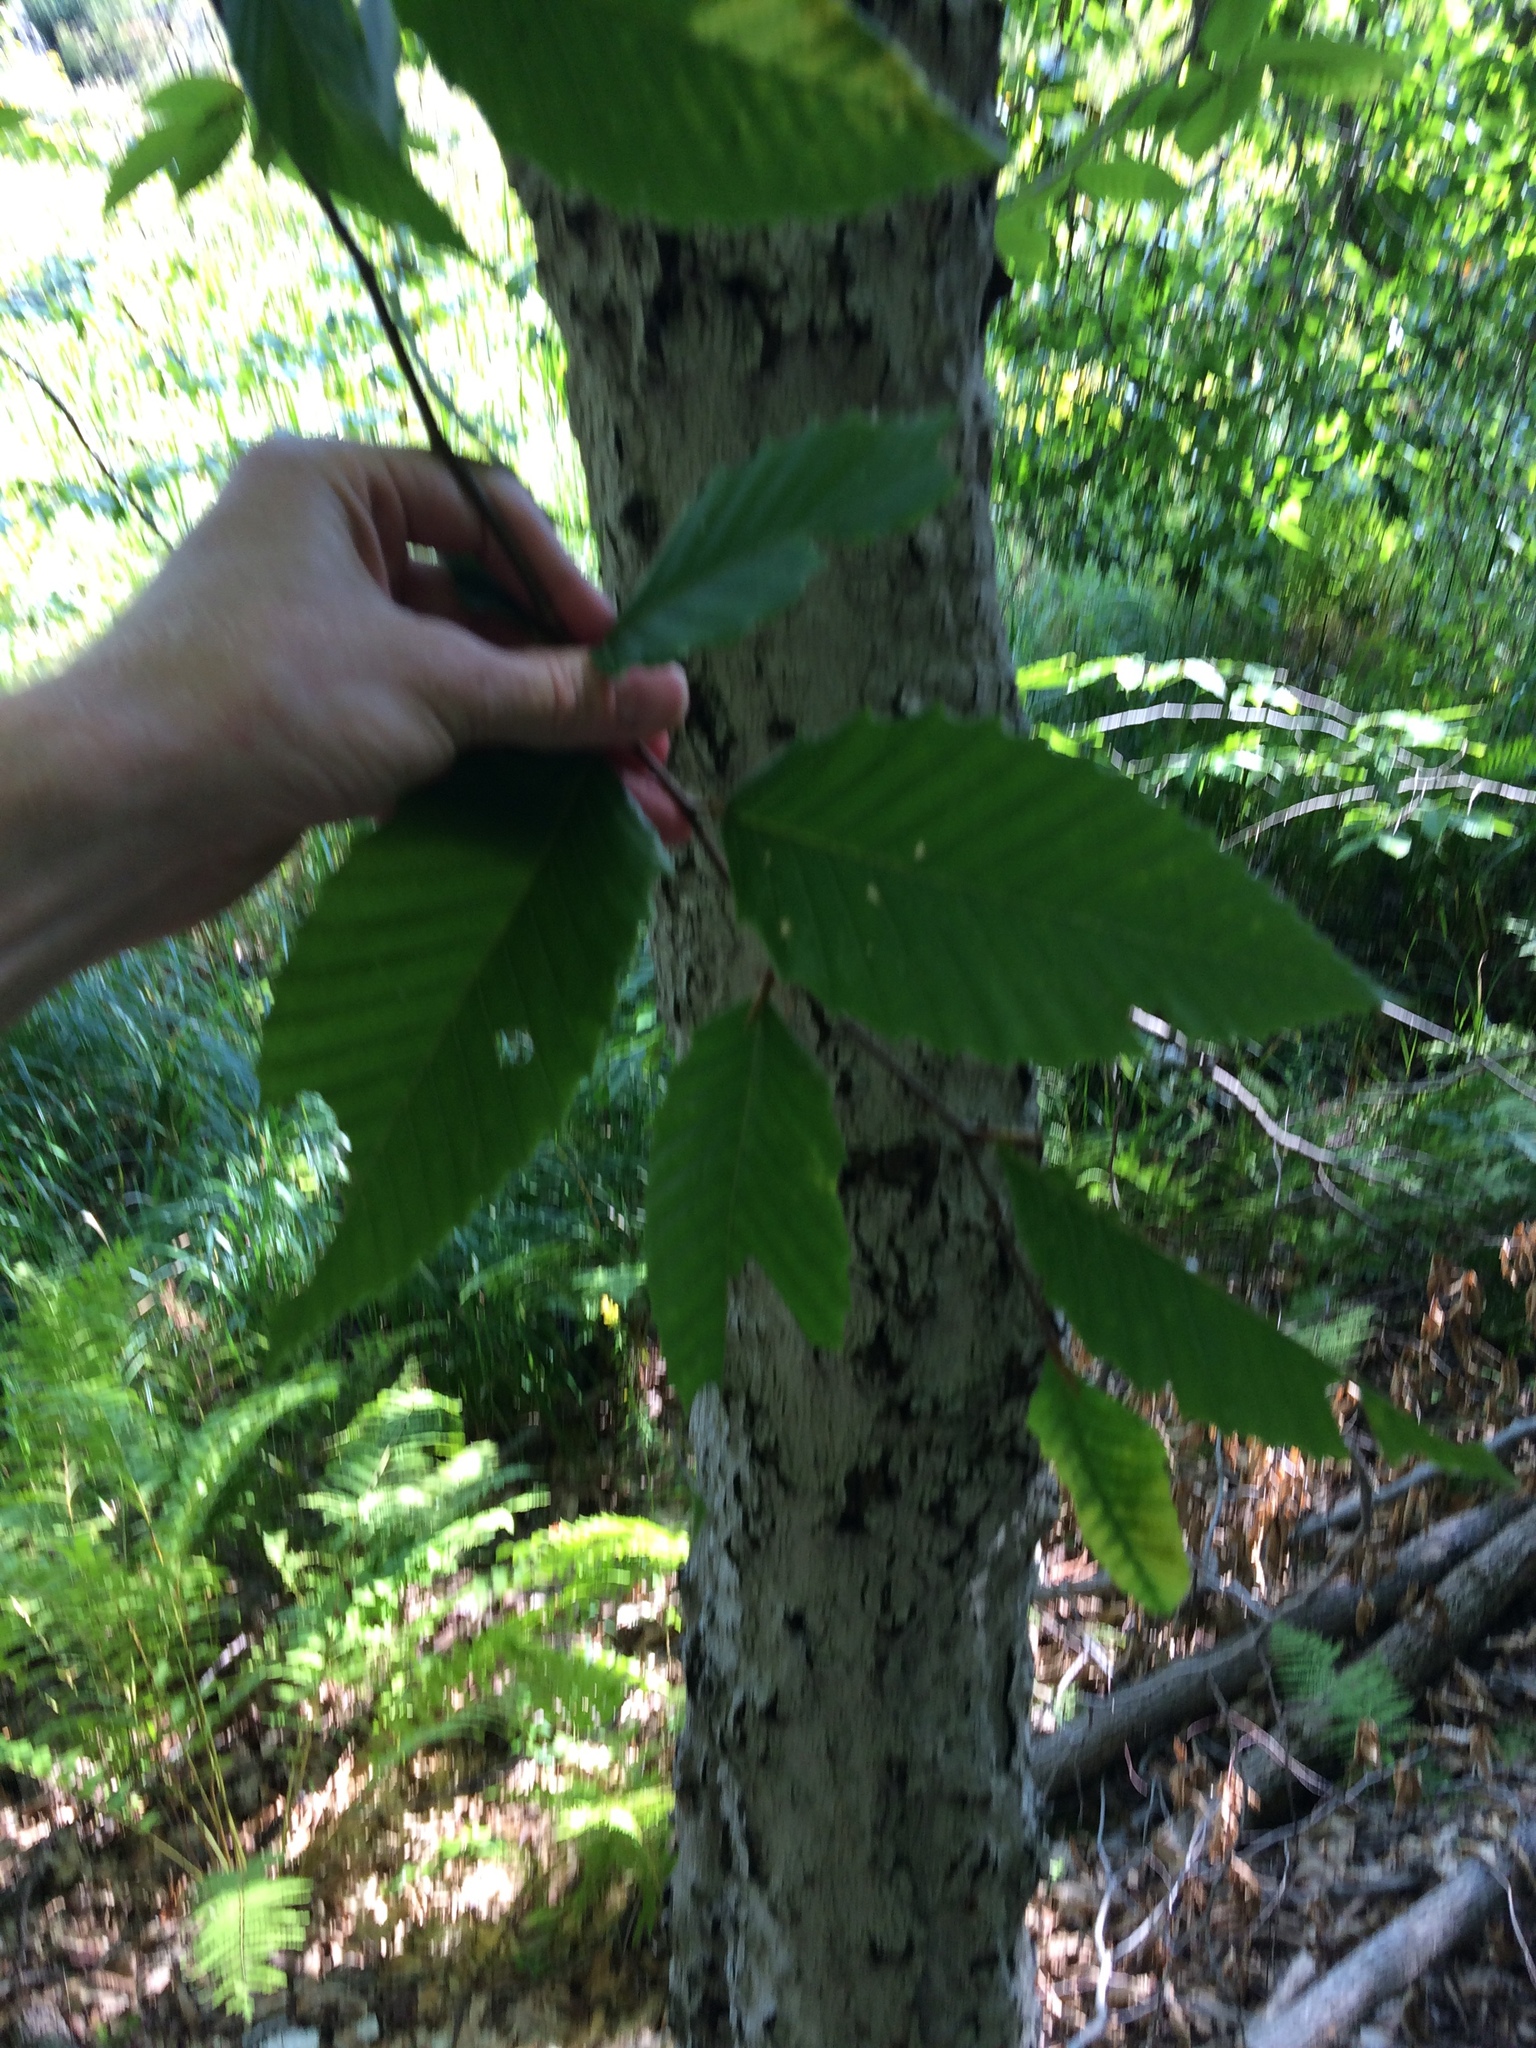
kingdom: Plantae
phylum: Tracheophyta
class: Magnoliopsida
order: Fagales
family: Fagaceae
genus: Fagus
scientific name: Fagus grandifolia
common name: American beech
